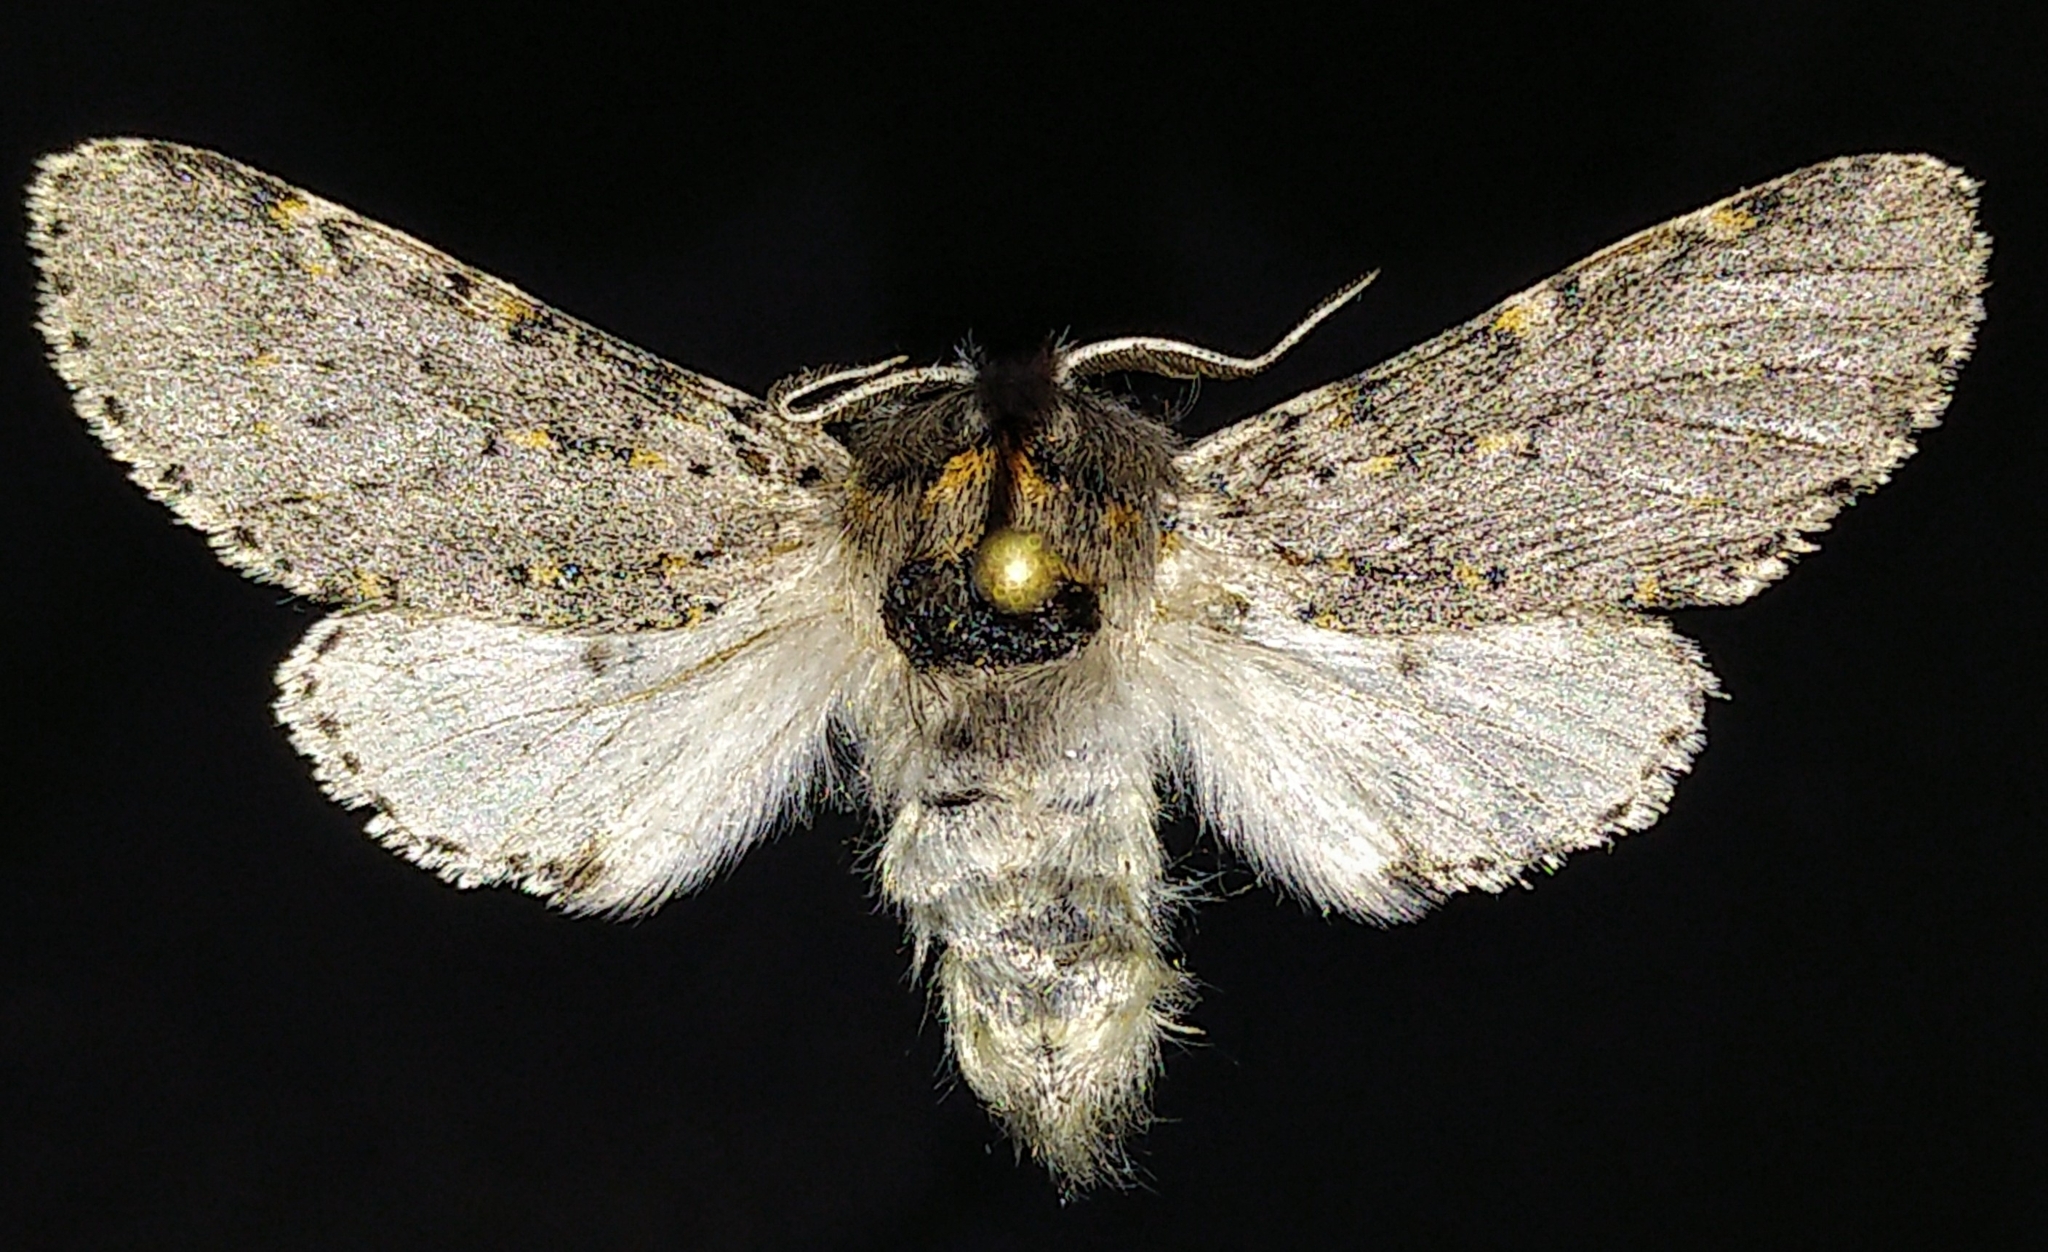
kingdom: Animalia
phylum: Arthropoda
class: Insecta
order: Lepidoptera
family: Notodontidae
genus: Furcula
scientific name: Furcula
